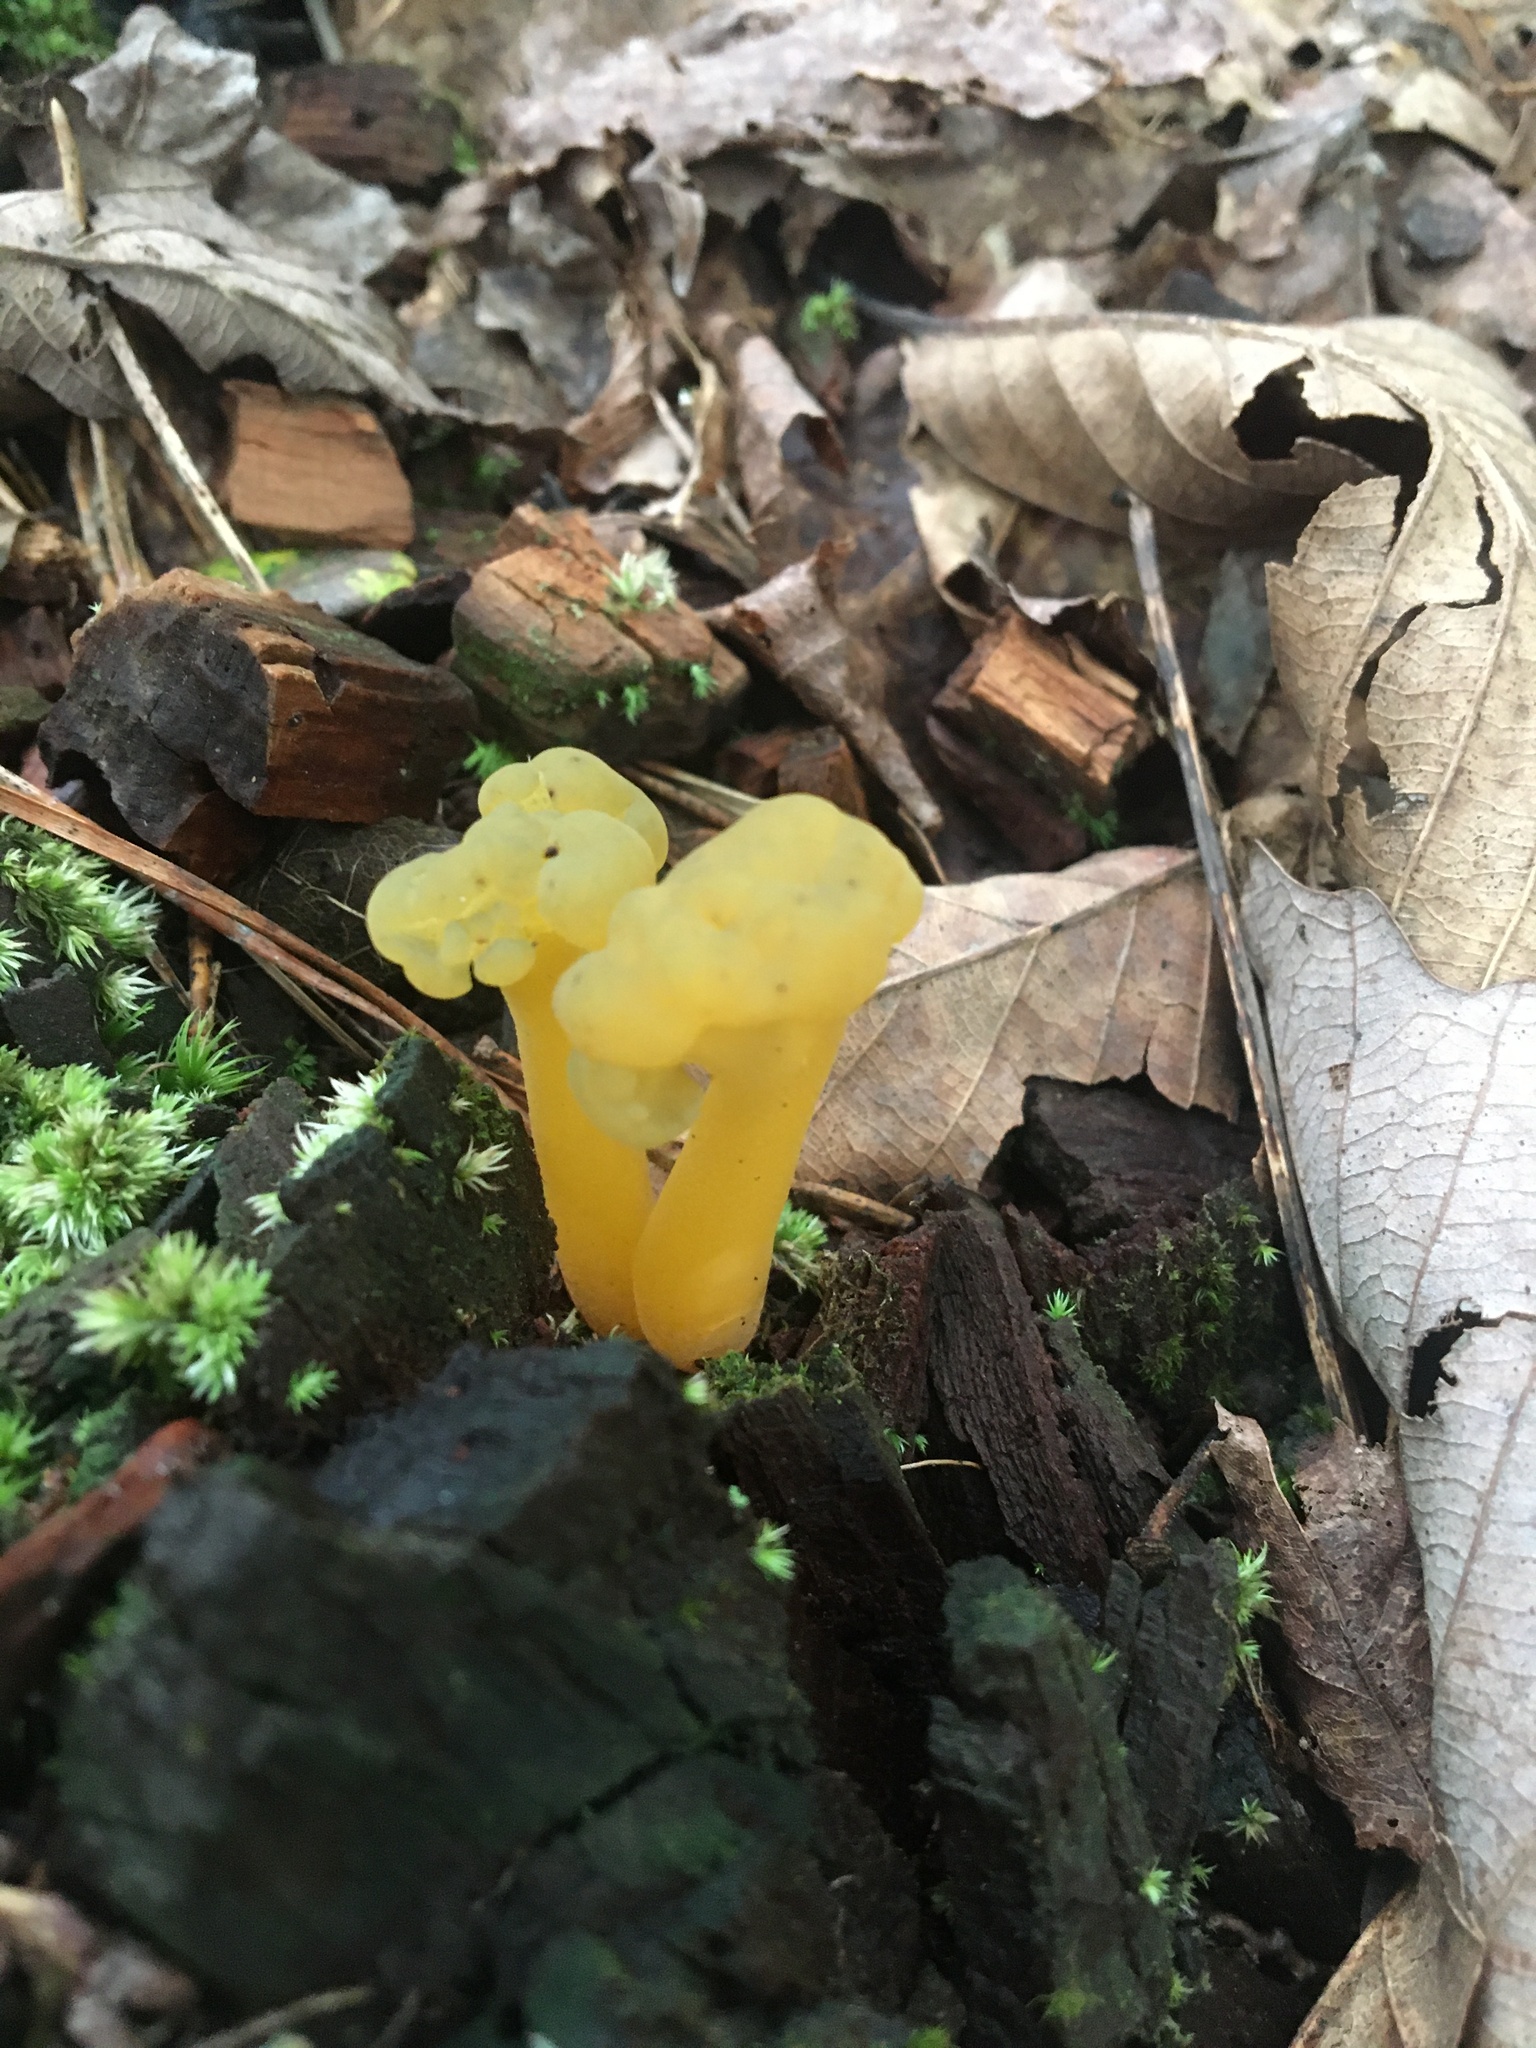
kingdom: Fungi
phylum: Ascomycota
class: Leotiomycetes
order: Leotiales
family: Leotiaceae
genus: Leotia
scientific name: Leotia lubrica
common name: Jellybaby
